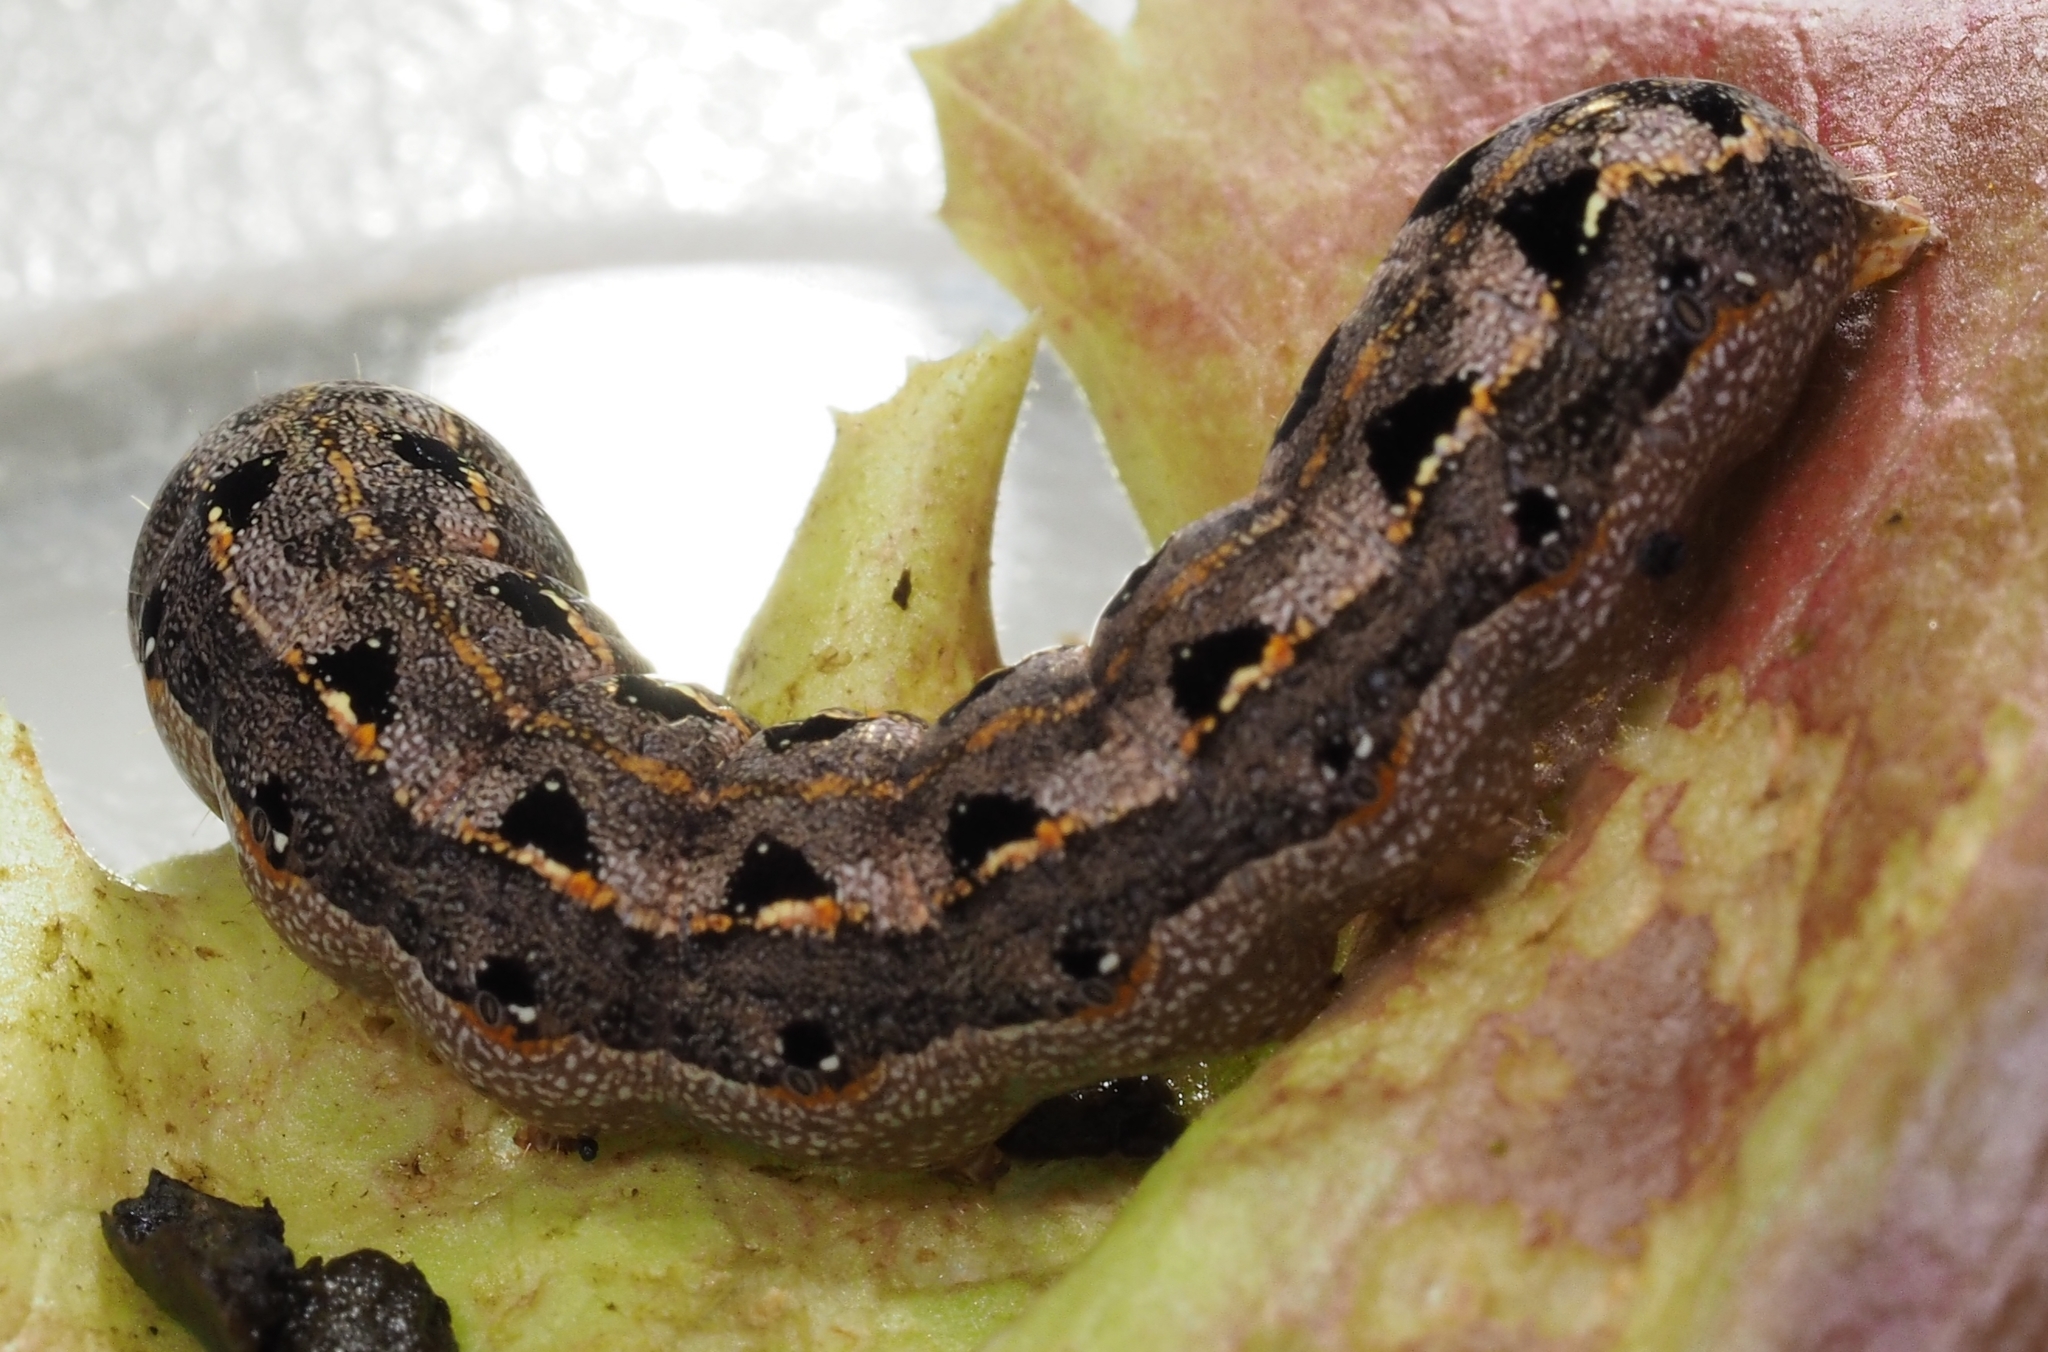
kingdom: Animalia
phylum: Arthropoda
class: Insecta
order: Lepidoptera
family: Noctuidae
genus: Spodoptera
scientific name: Spodoptera litura
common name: Asian cotton leafworm
